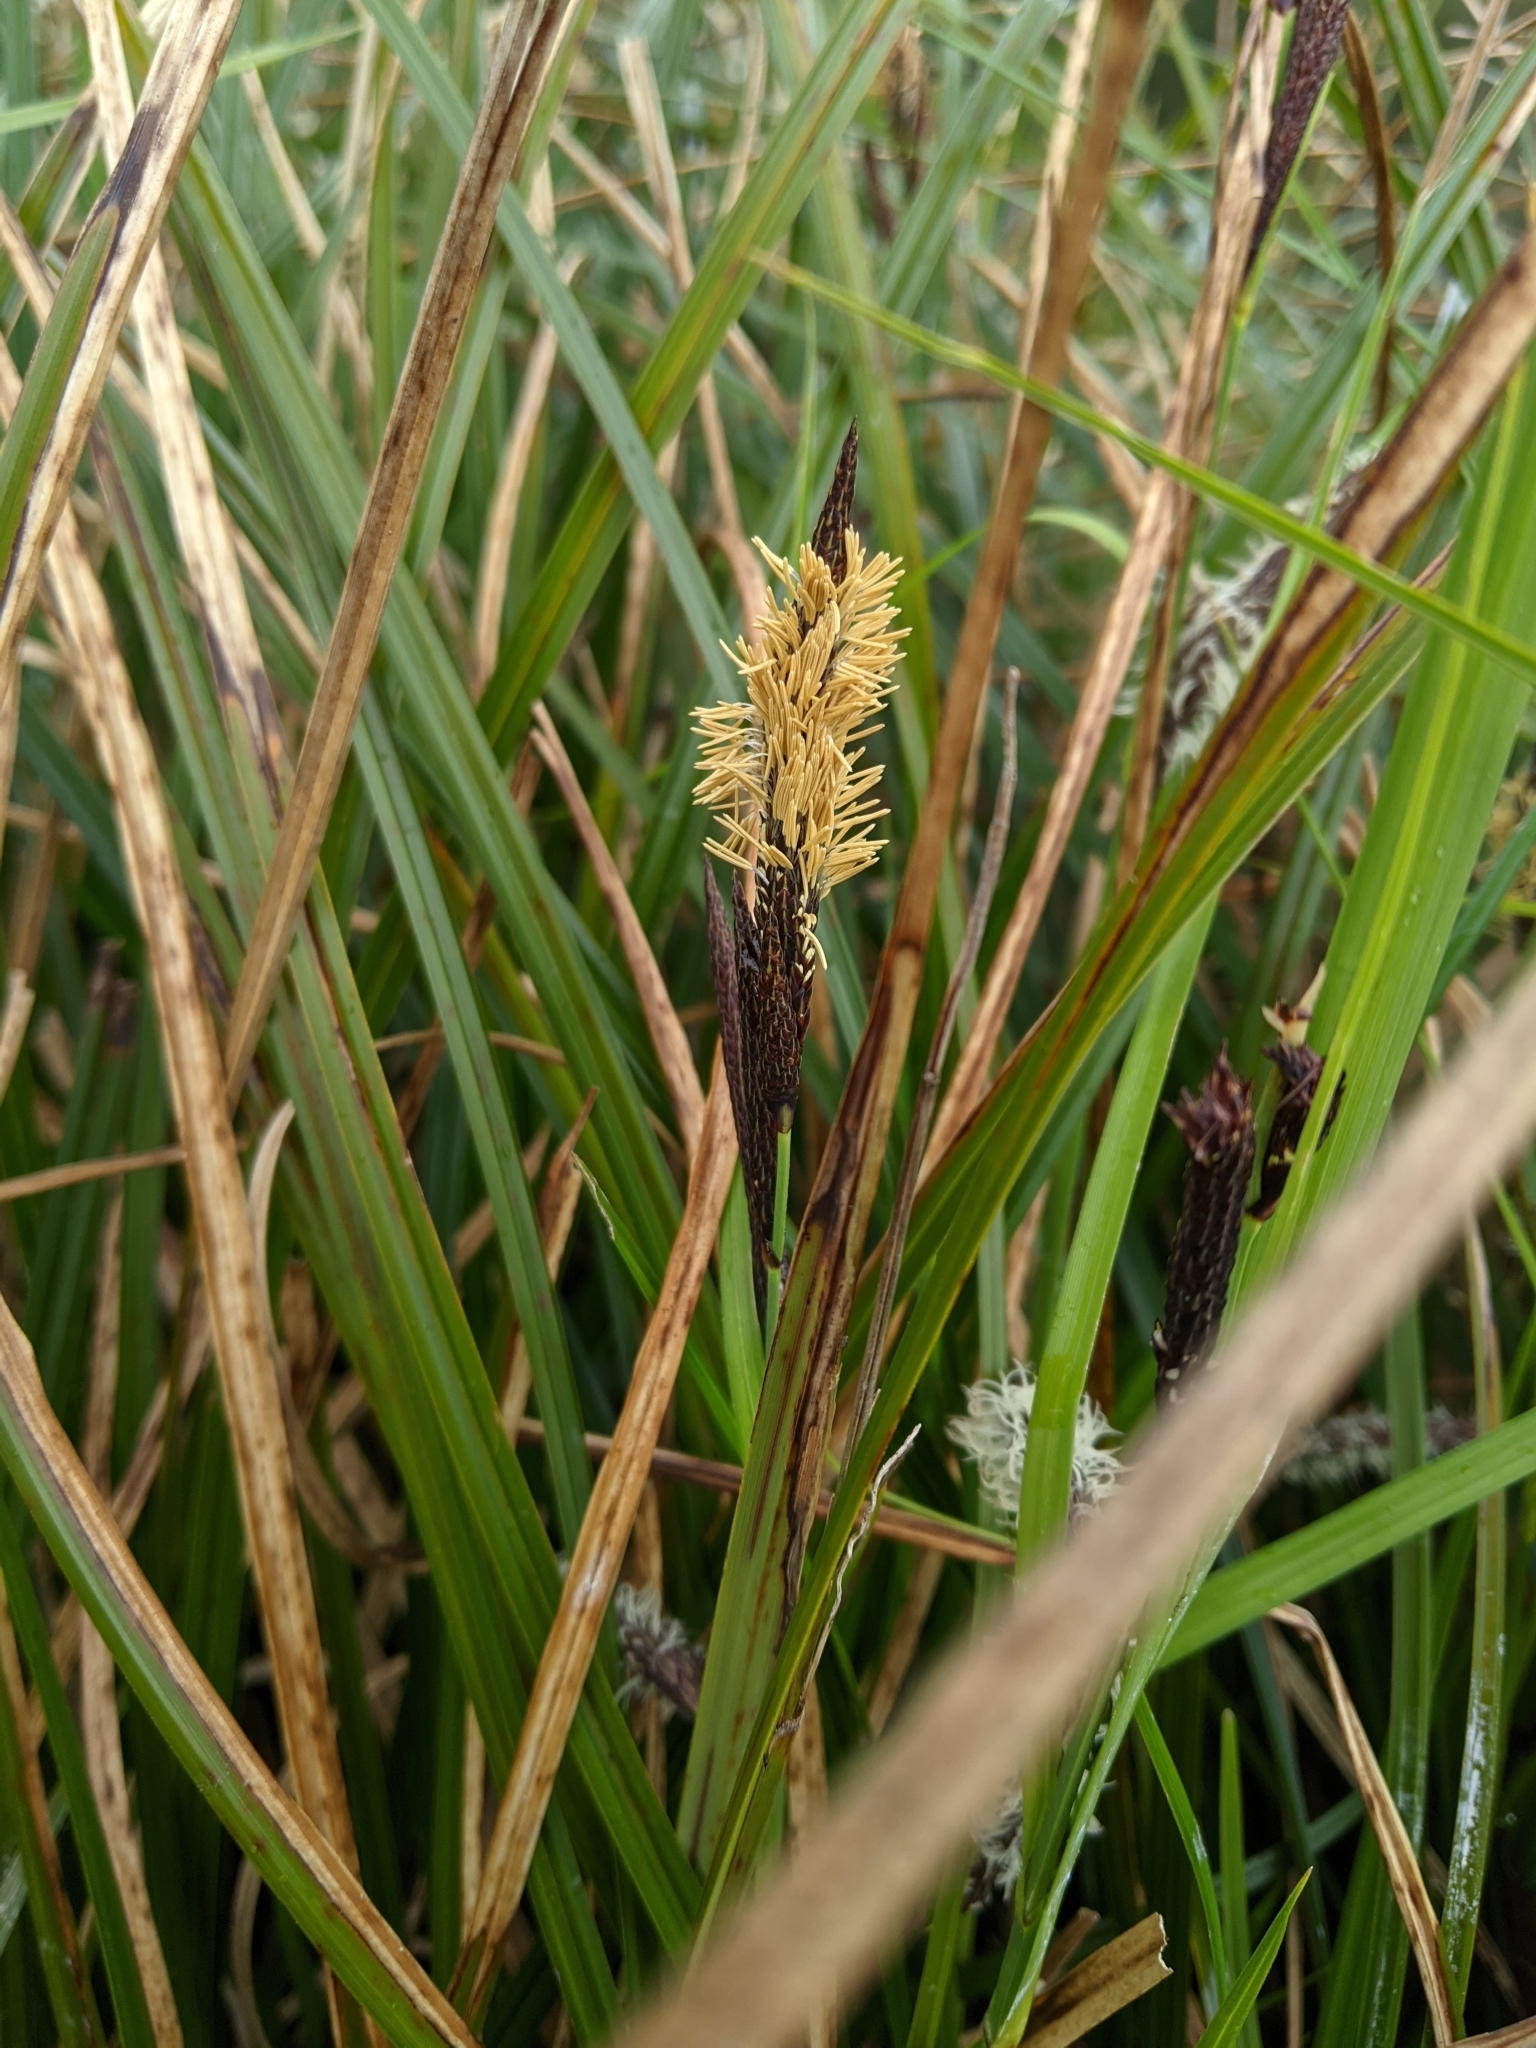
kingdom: Plantae
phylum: Tracheophyta
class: Liliopsida
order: Poales
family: Cyperaceae
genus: Carex
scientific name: Carex obnupta
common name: Slough sedge
